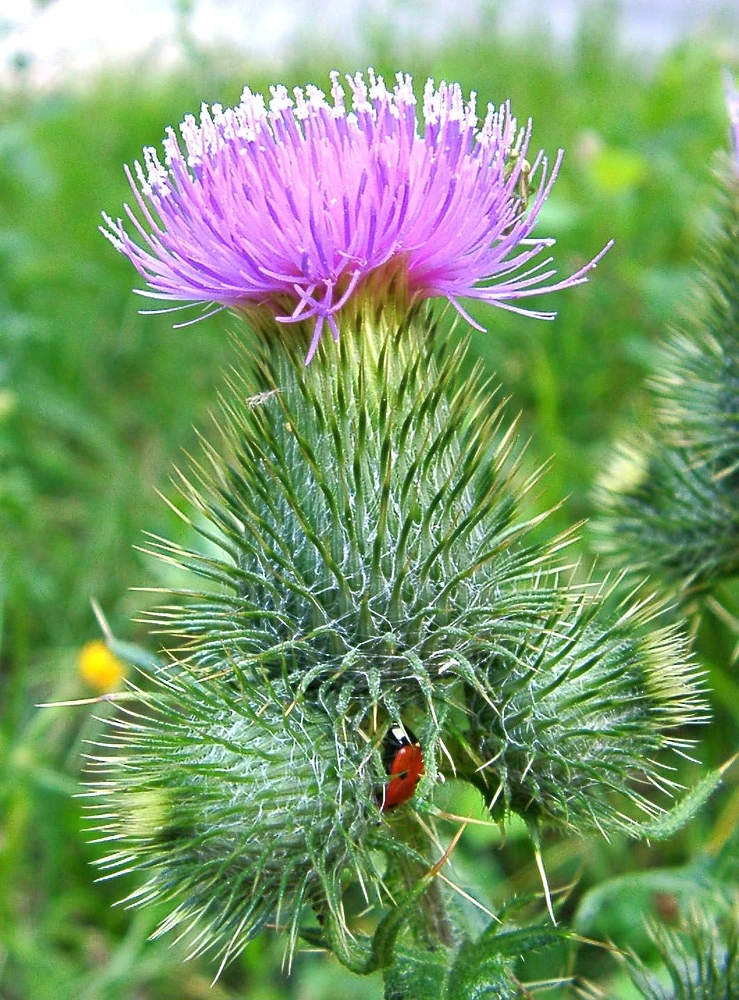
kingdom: Plantae
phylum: Tracheophyta
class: Magnoliopsida
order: Asterales
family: Asteraceae
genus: Cirsium
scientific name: Cirsium vulgare
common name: Bull thistle
